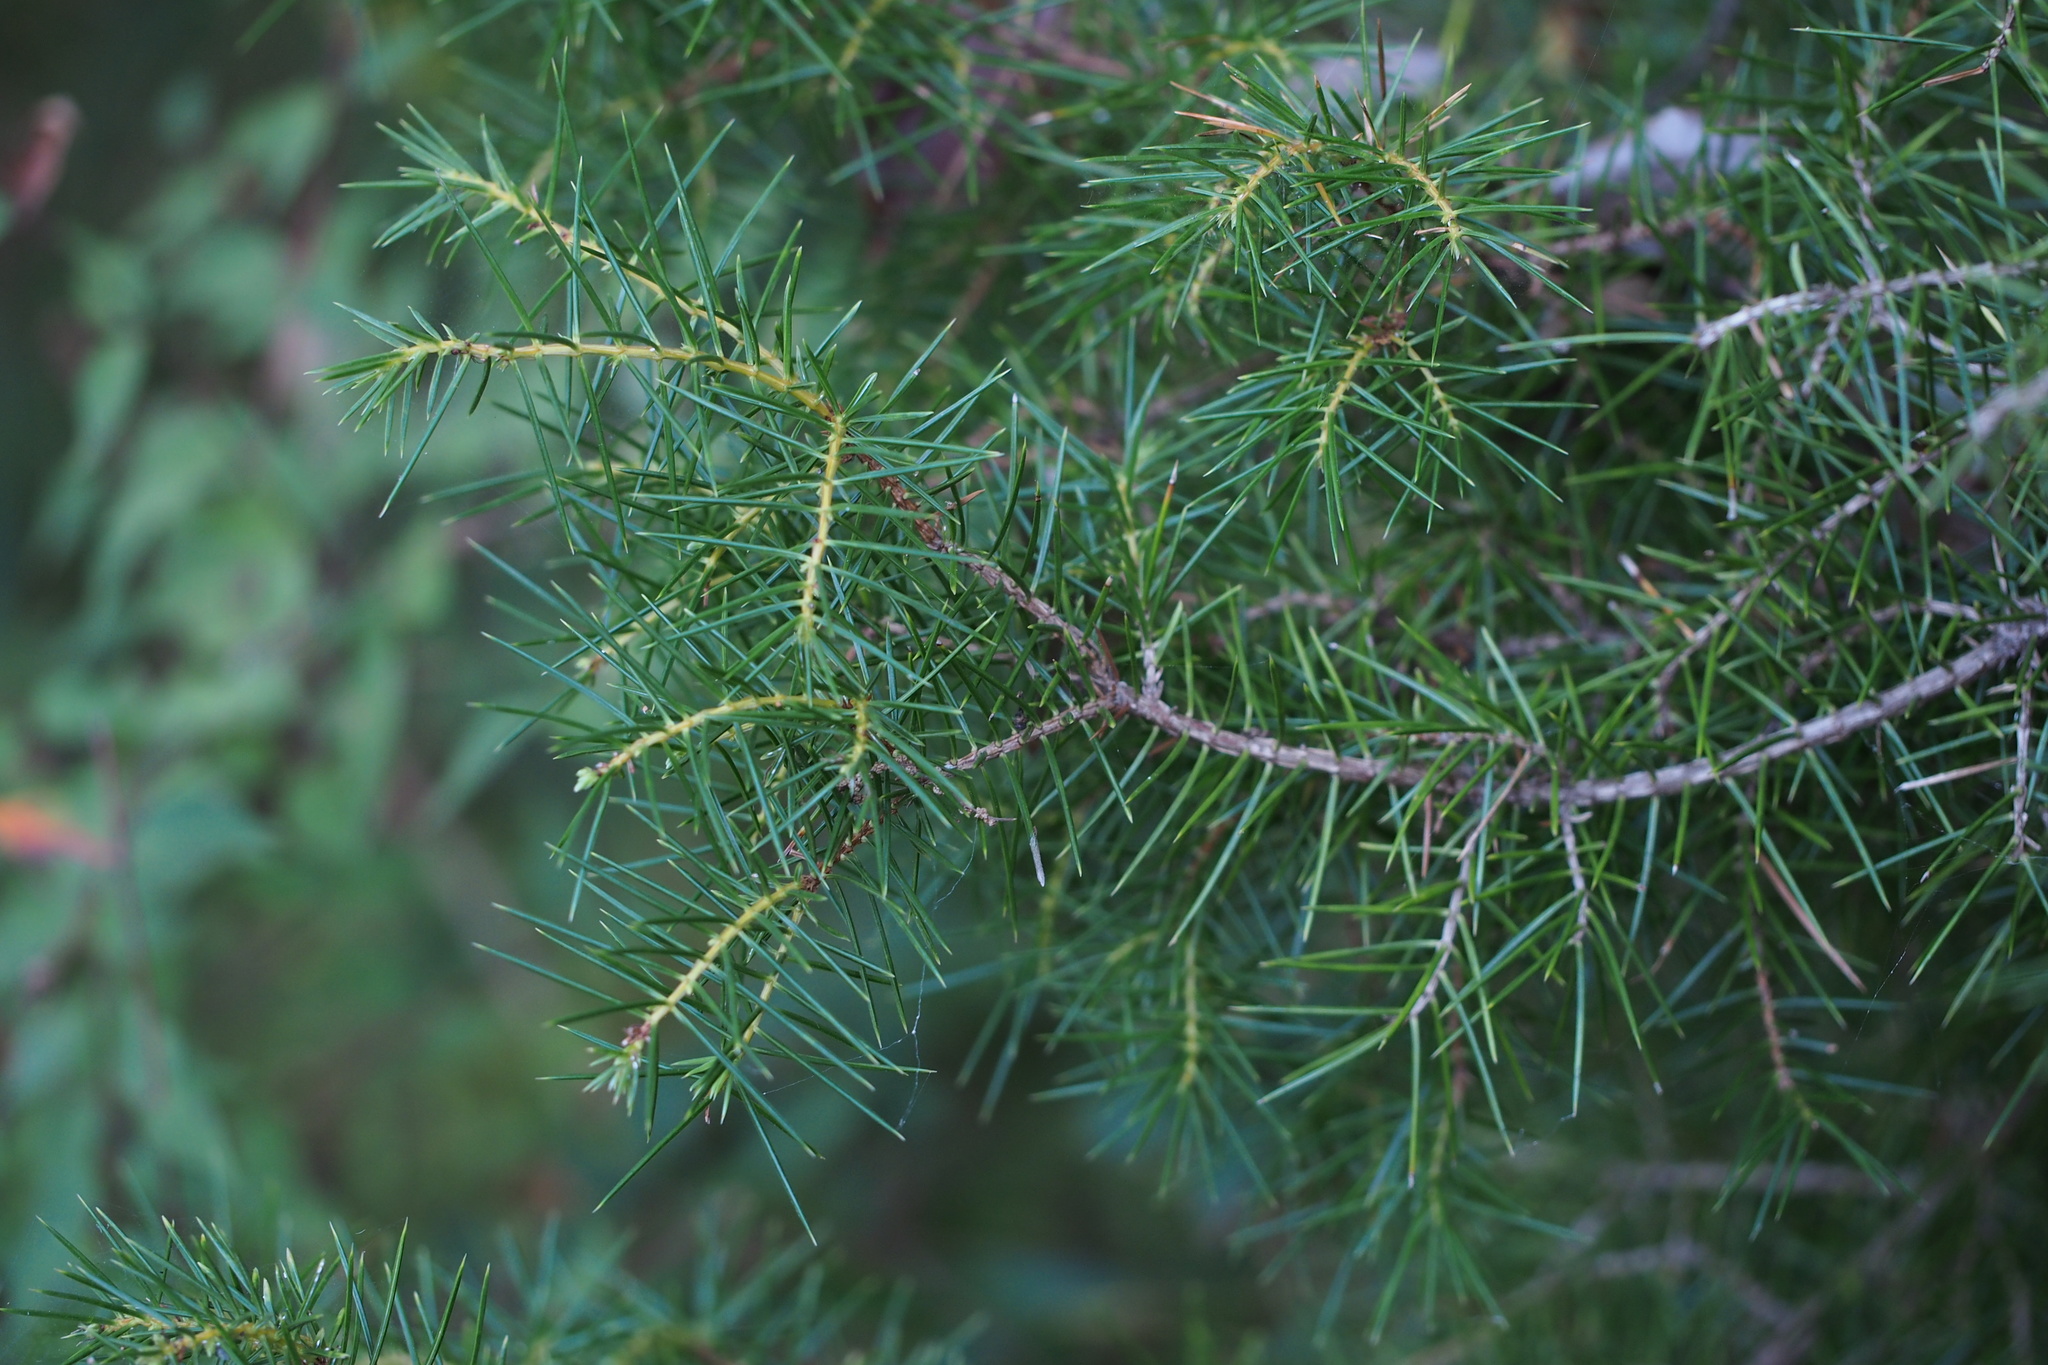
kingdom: Plantae
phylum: Tracheophyta
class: Pinopsida
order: Pinales
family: Cupressaceae
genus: Juniperus
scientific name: Juniperus rigida
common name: Needle juniper
